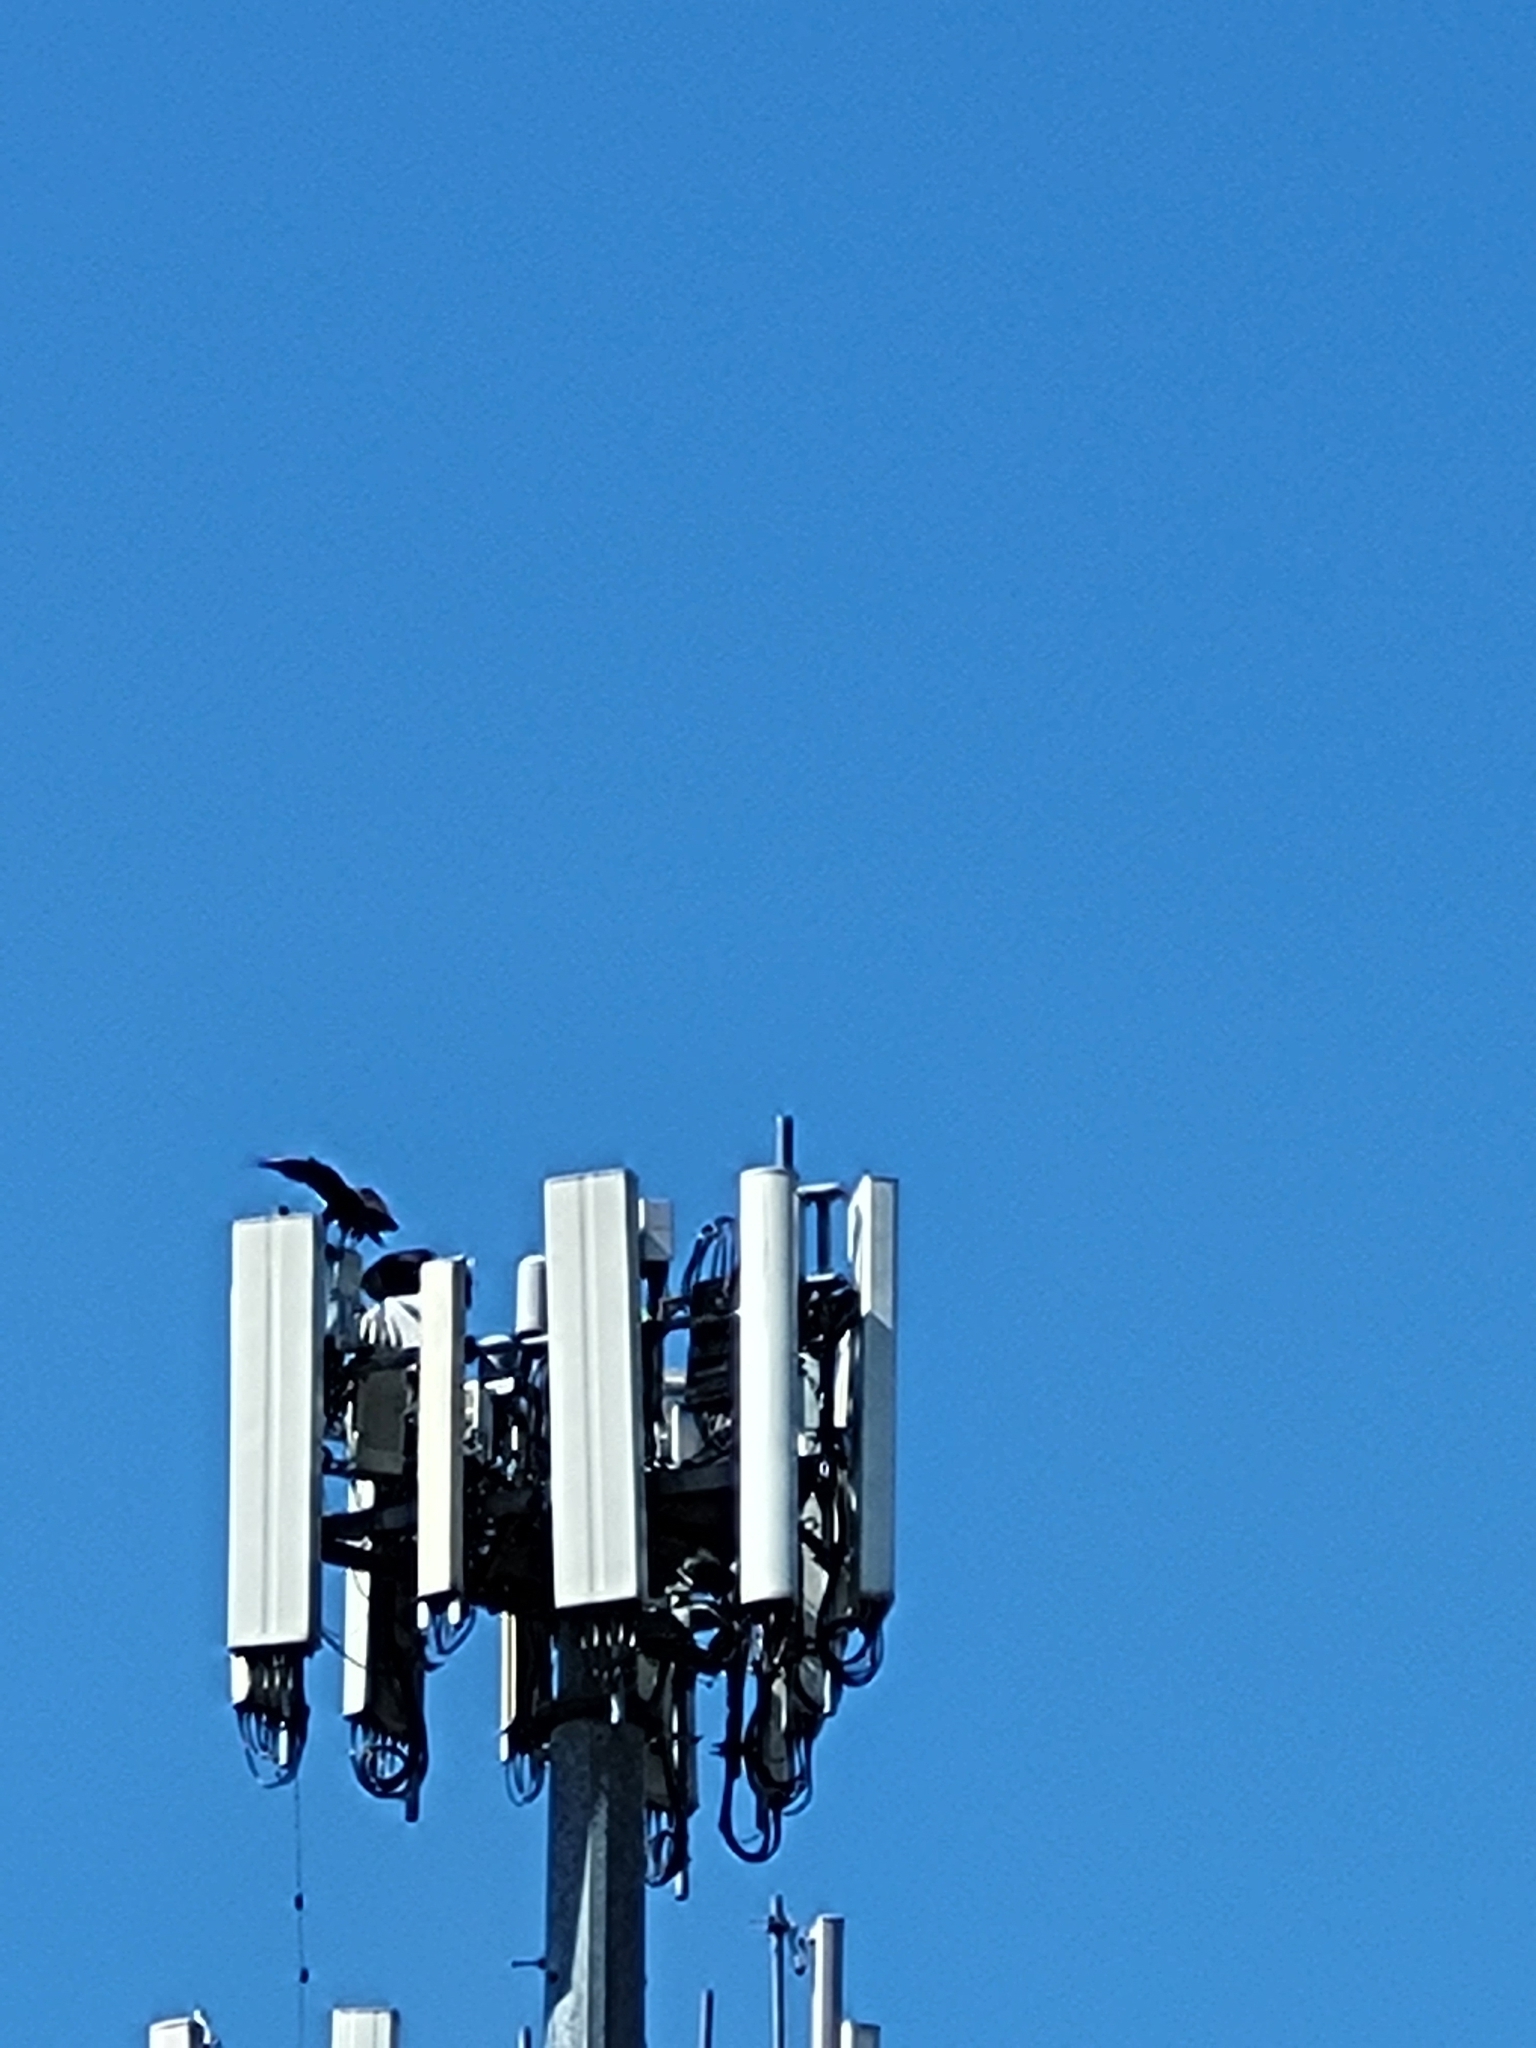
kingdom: Animalia
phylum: Chordata
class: Aves
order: Accipitriformes
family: Cathartidae
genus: Coragyps
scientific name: Coragyps atratus
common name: Black vulture
